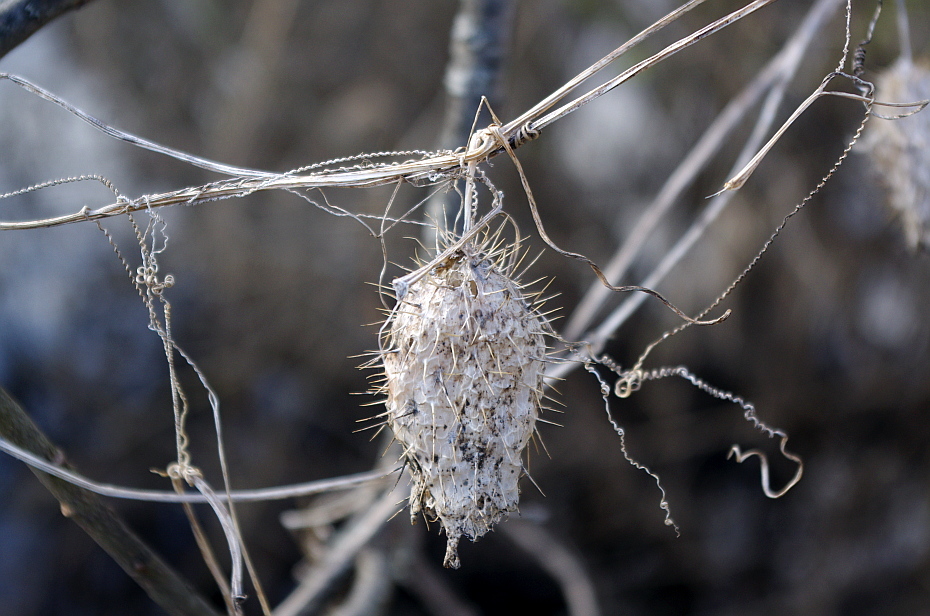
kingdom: Plantae
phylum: Tracheophyta
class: Magnoliopsida
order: Cucurbitales
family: Cucurbitaceae
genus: Echinocystis
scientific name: Echinocystis lobata
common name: Wild cucumber
